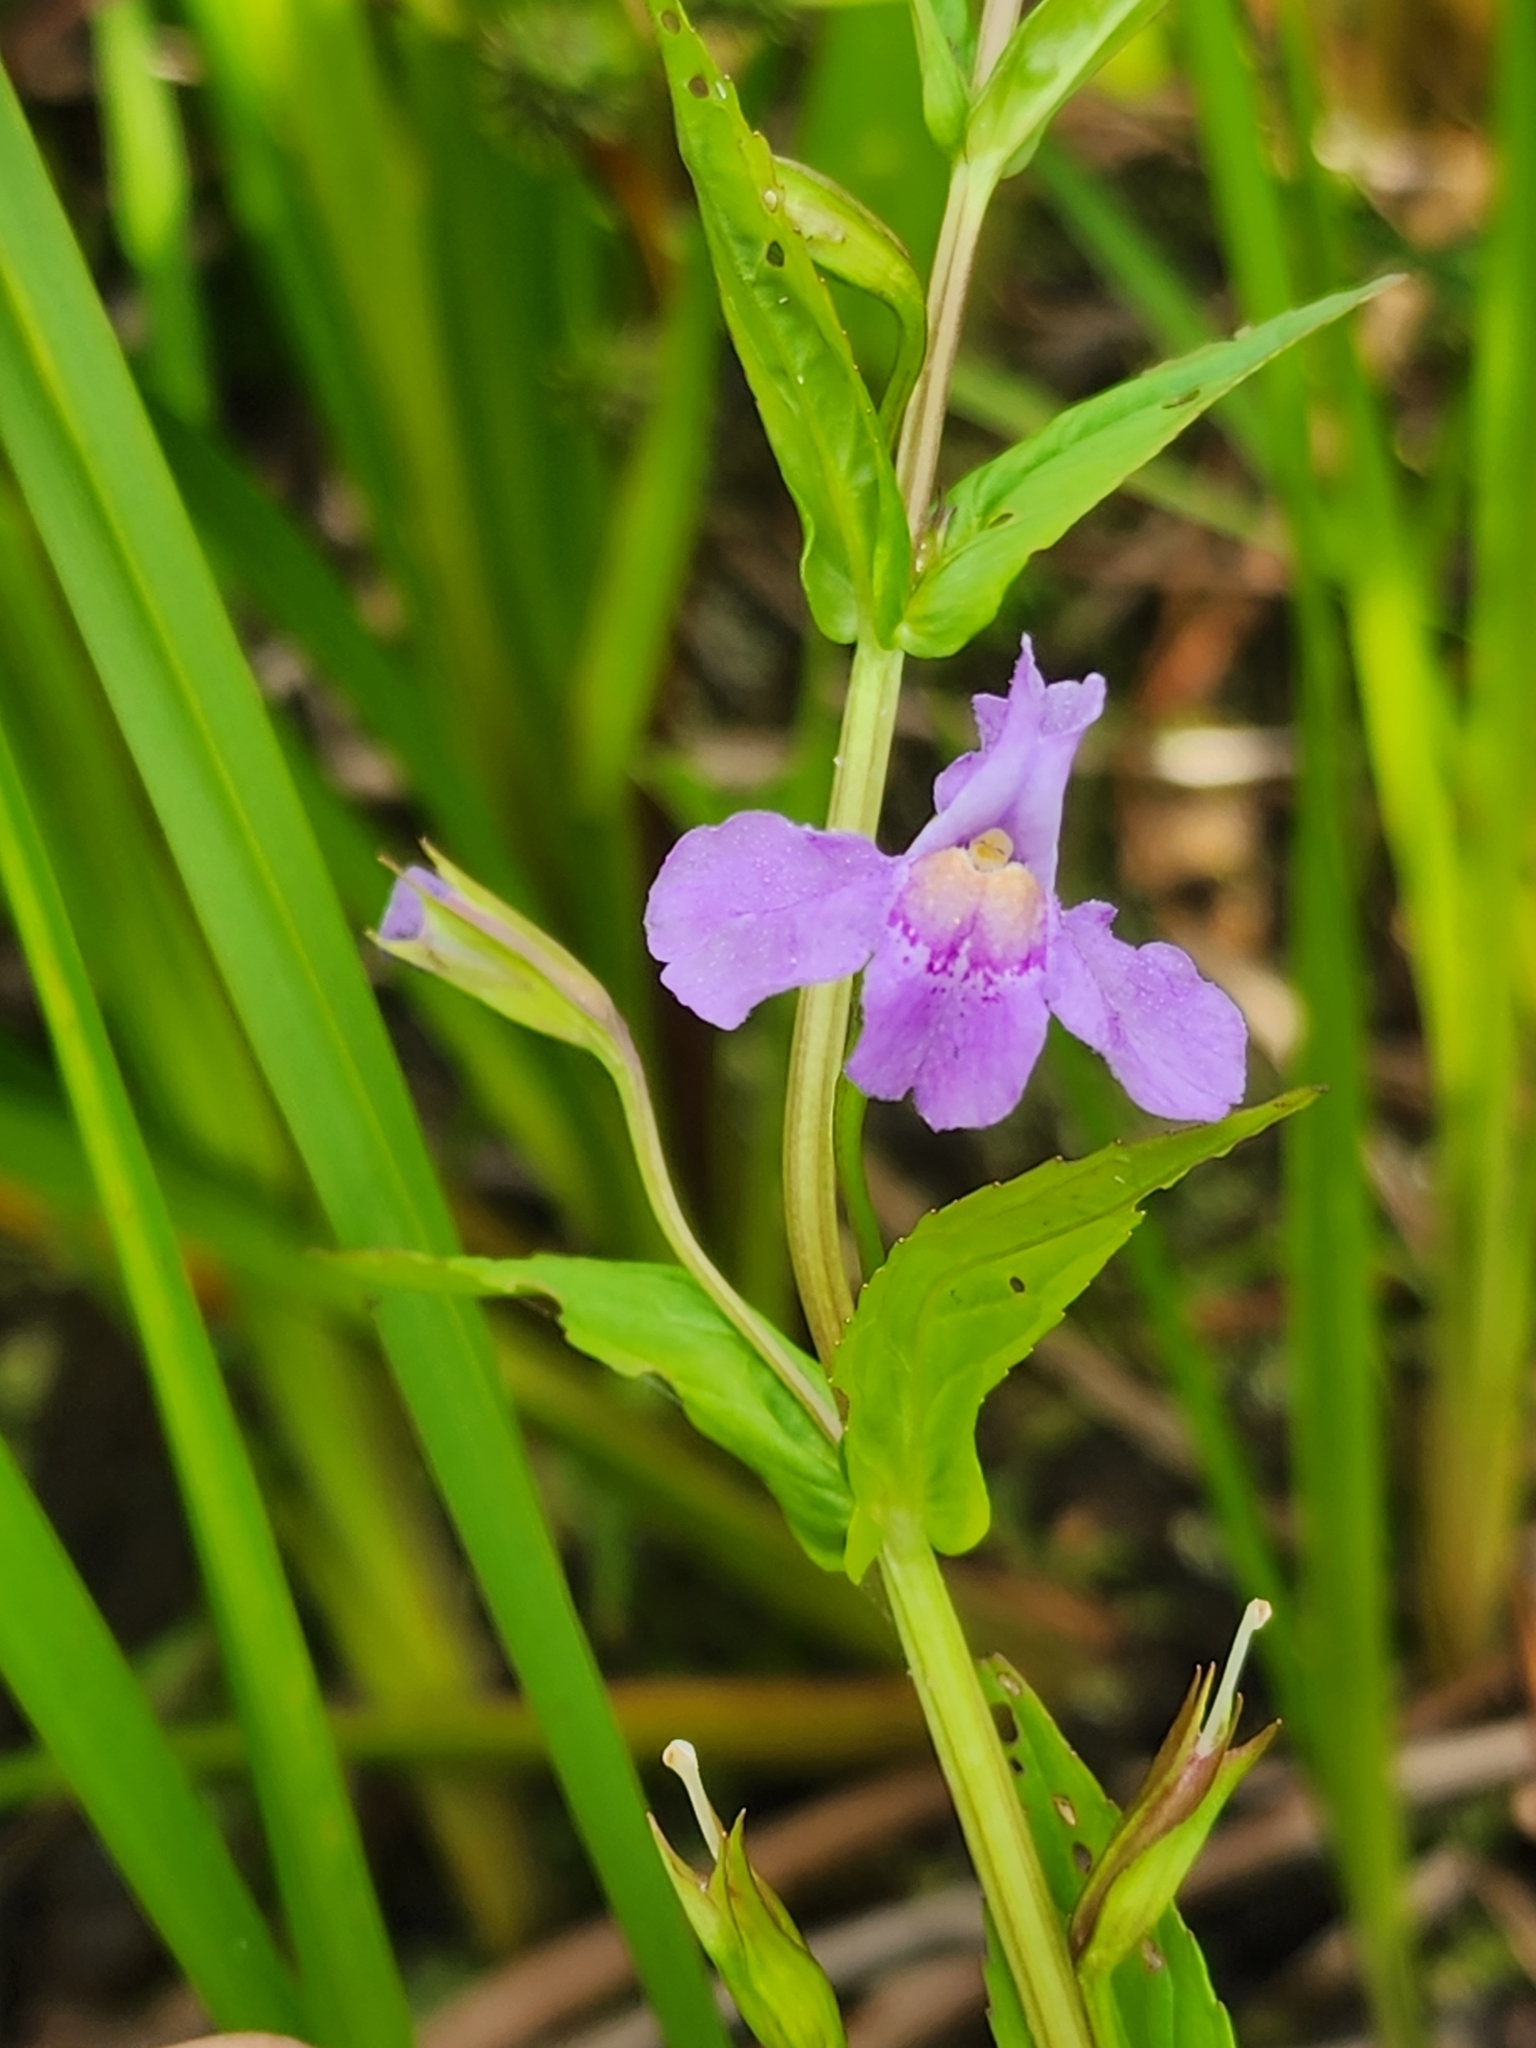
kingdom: Plantae
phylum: Tracheophyta
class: Magnoliopsida
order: Lamiales
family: Phrymaceae
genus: Mimulus
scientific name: Mimulus ringens
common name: Allegheny monkeyflower
